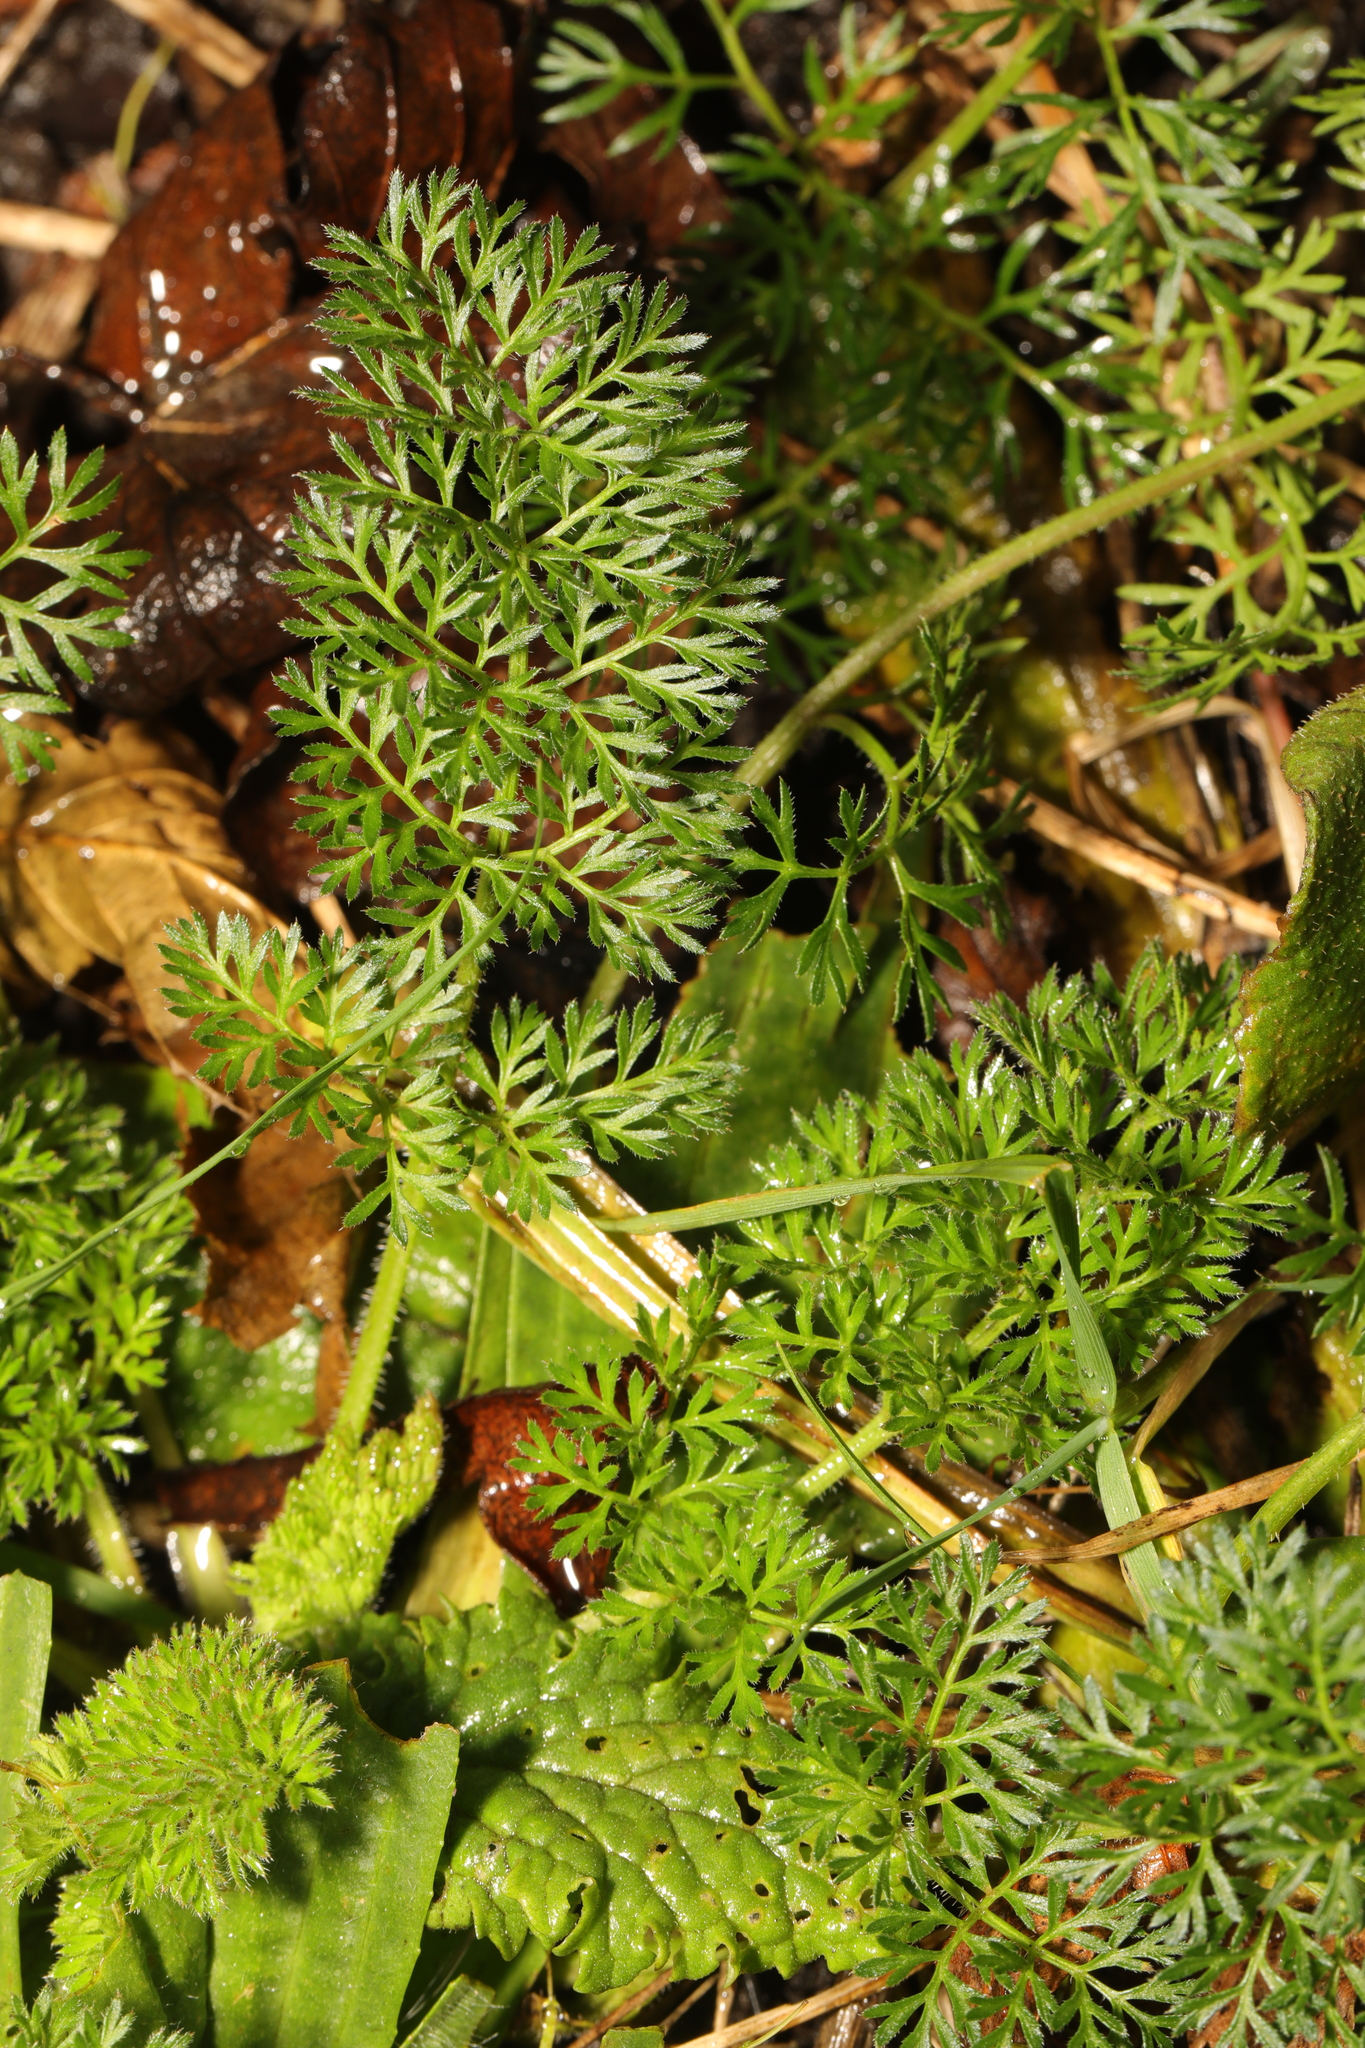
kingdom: Plantae
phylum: Tracheophyta
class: Magnoliopsida
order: Apiales
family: Apiaceae
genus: Daucus
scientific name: Daucus carota
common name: Wild carrot
